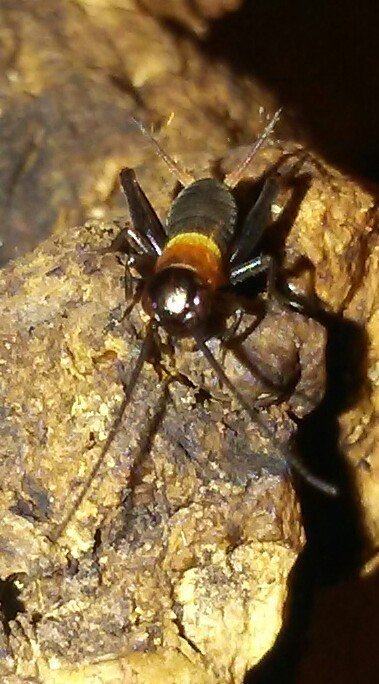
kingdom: Animalia
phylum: Arthropoda
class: Insecta
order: Orthoptera
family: Gryllidae
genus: Gryllus
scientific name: Gryllus pennsylvanicus
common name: Fall field cricket
